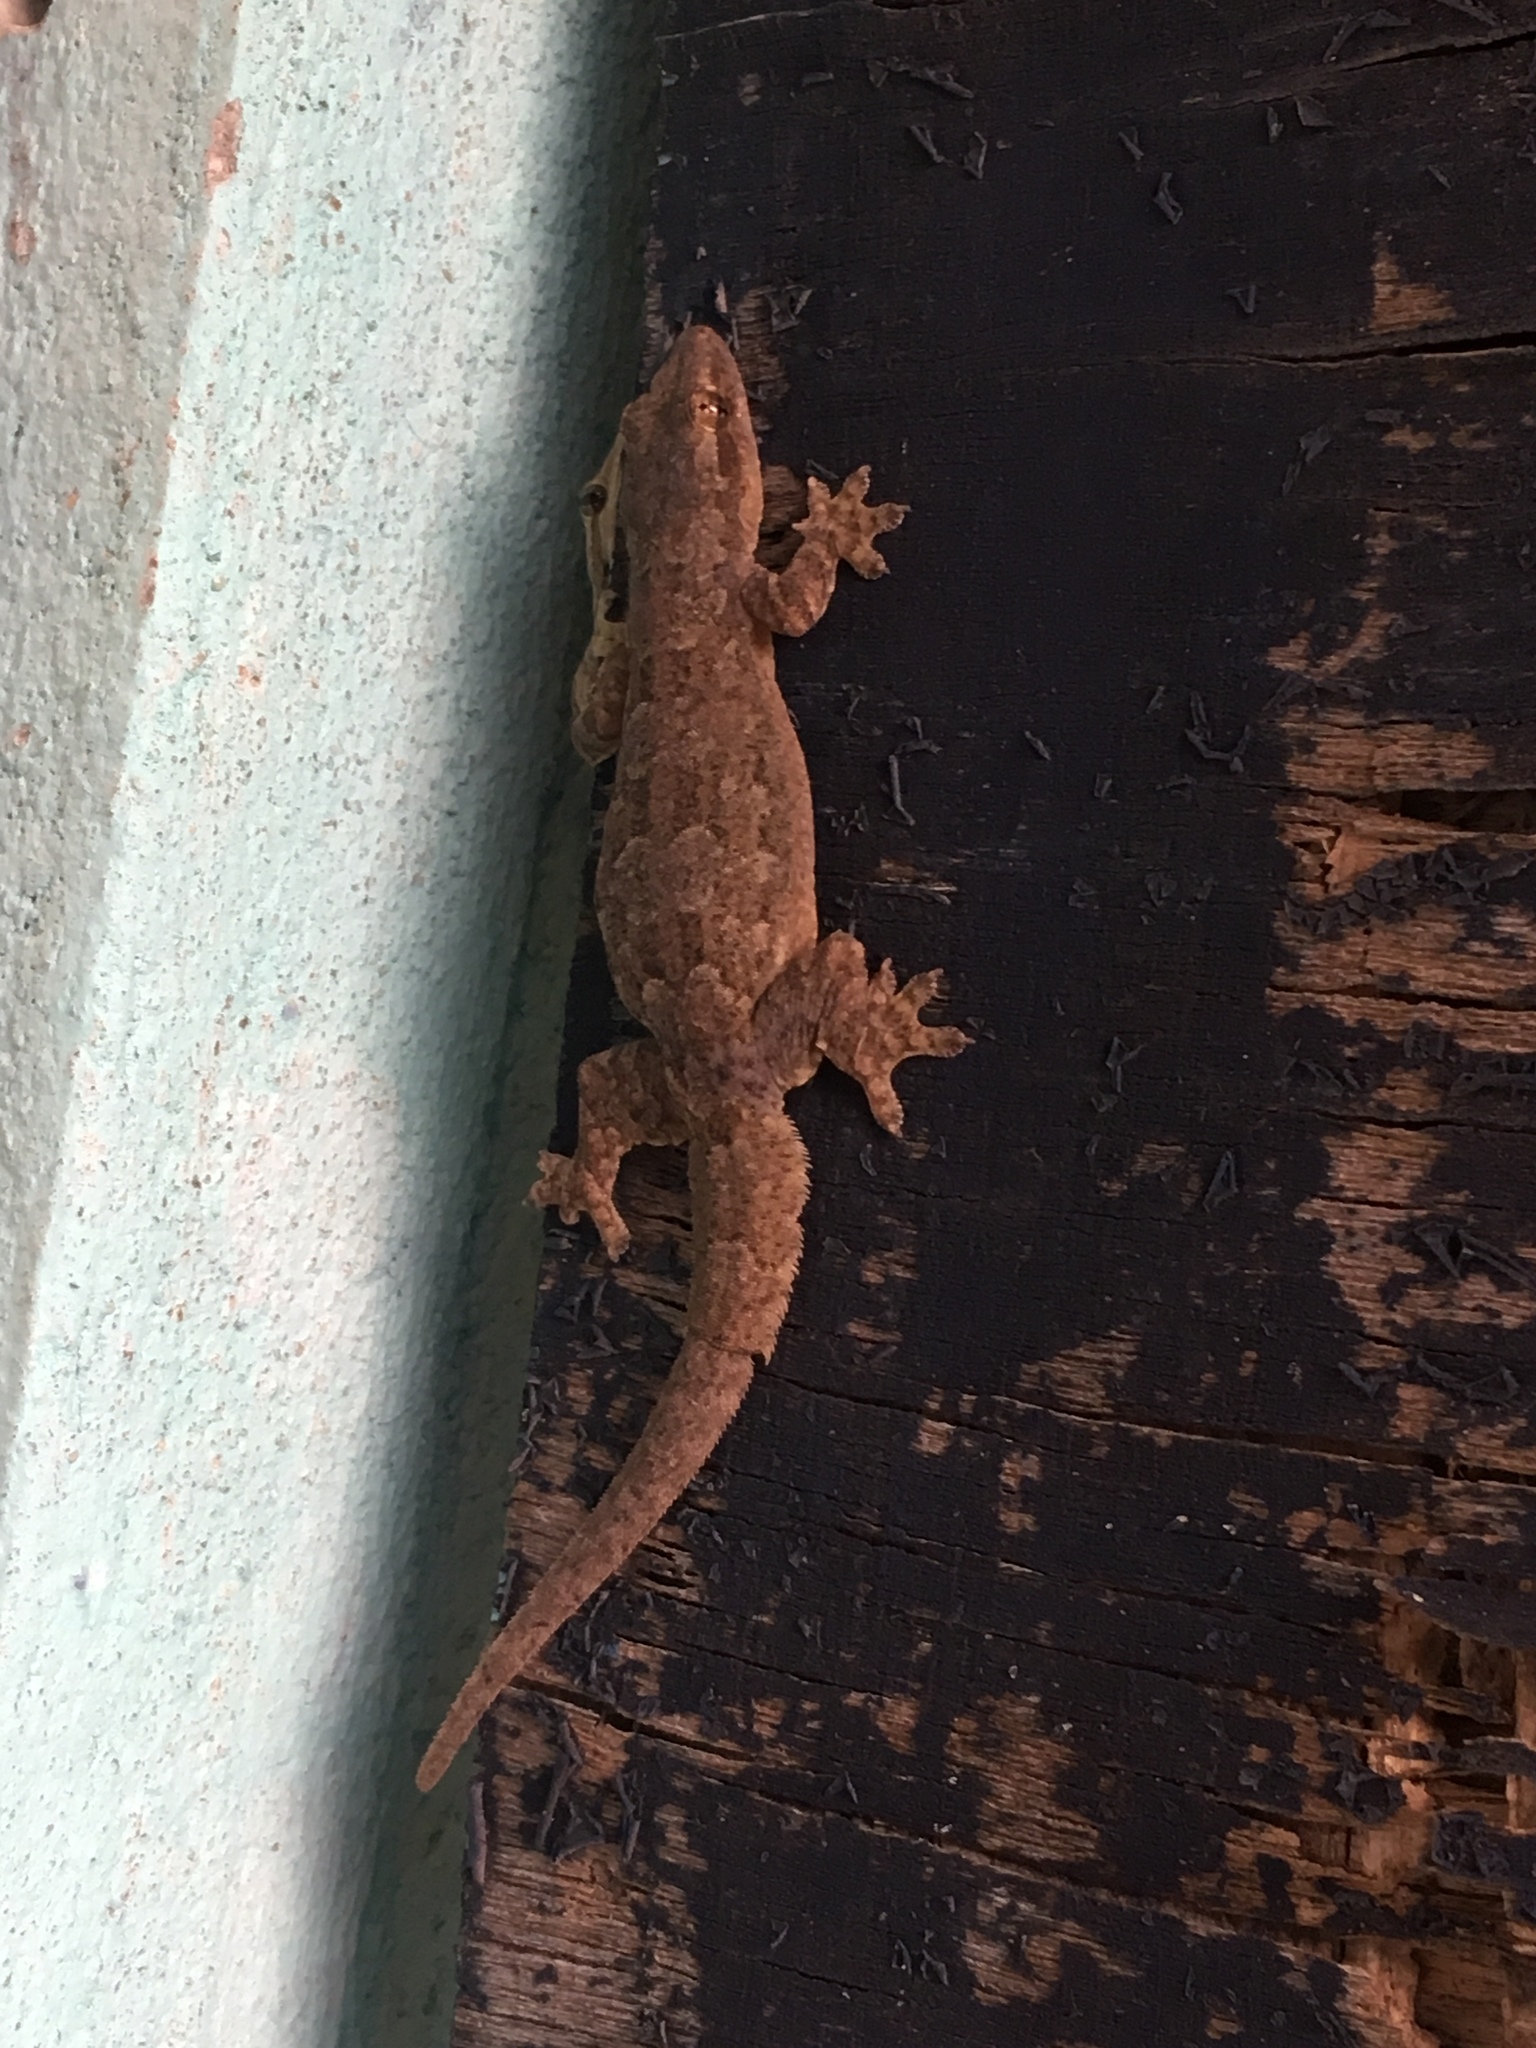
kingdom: Animalia
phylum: Chordata
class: Squamata
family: Gekkonidae
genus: Hemidactylus
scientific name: Hemidactylus platyurus
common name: Flat-tailed house gecko
